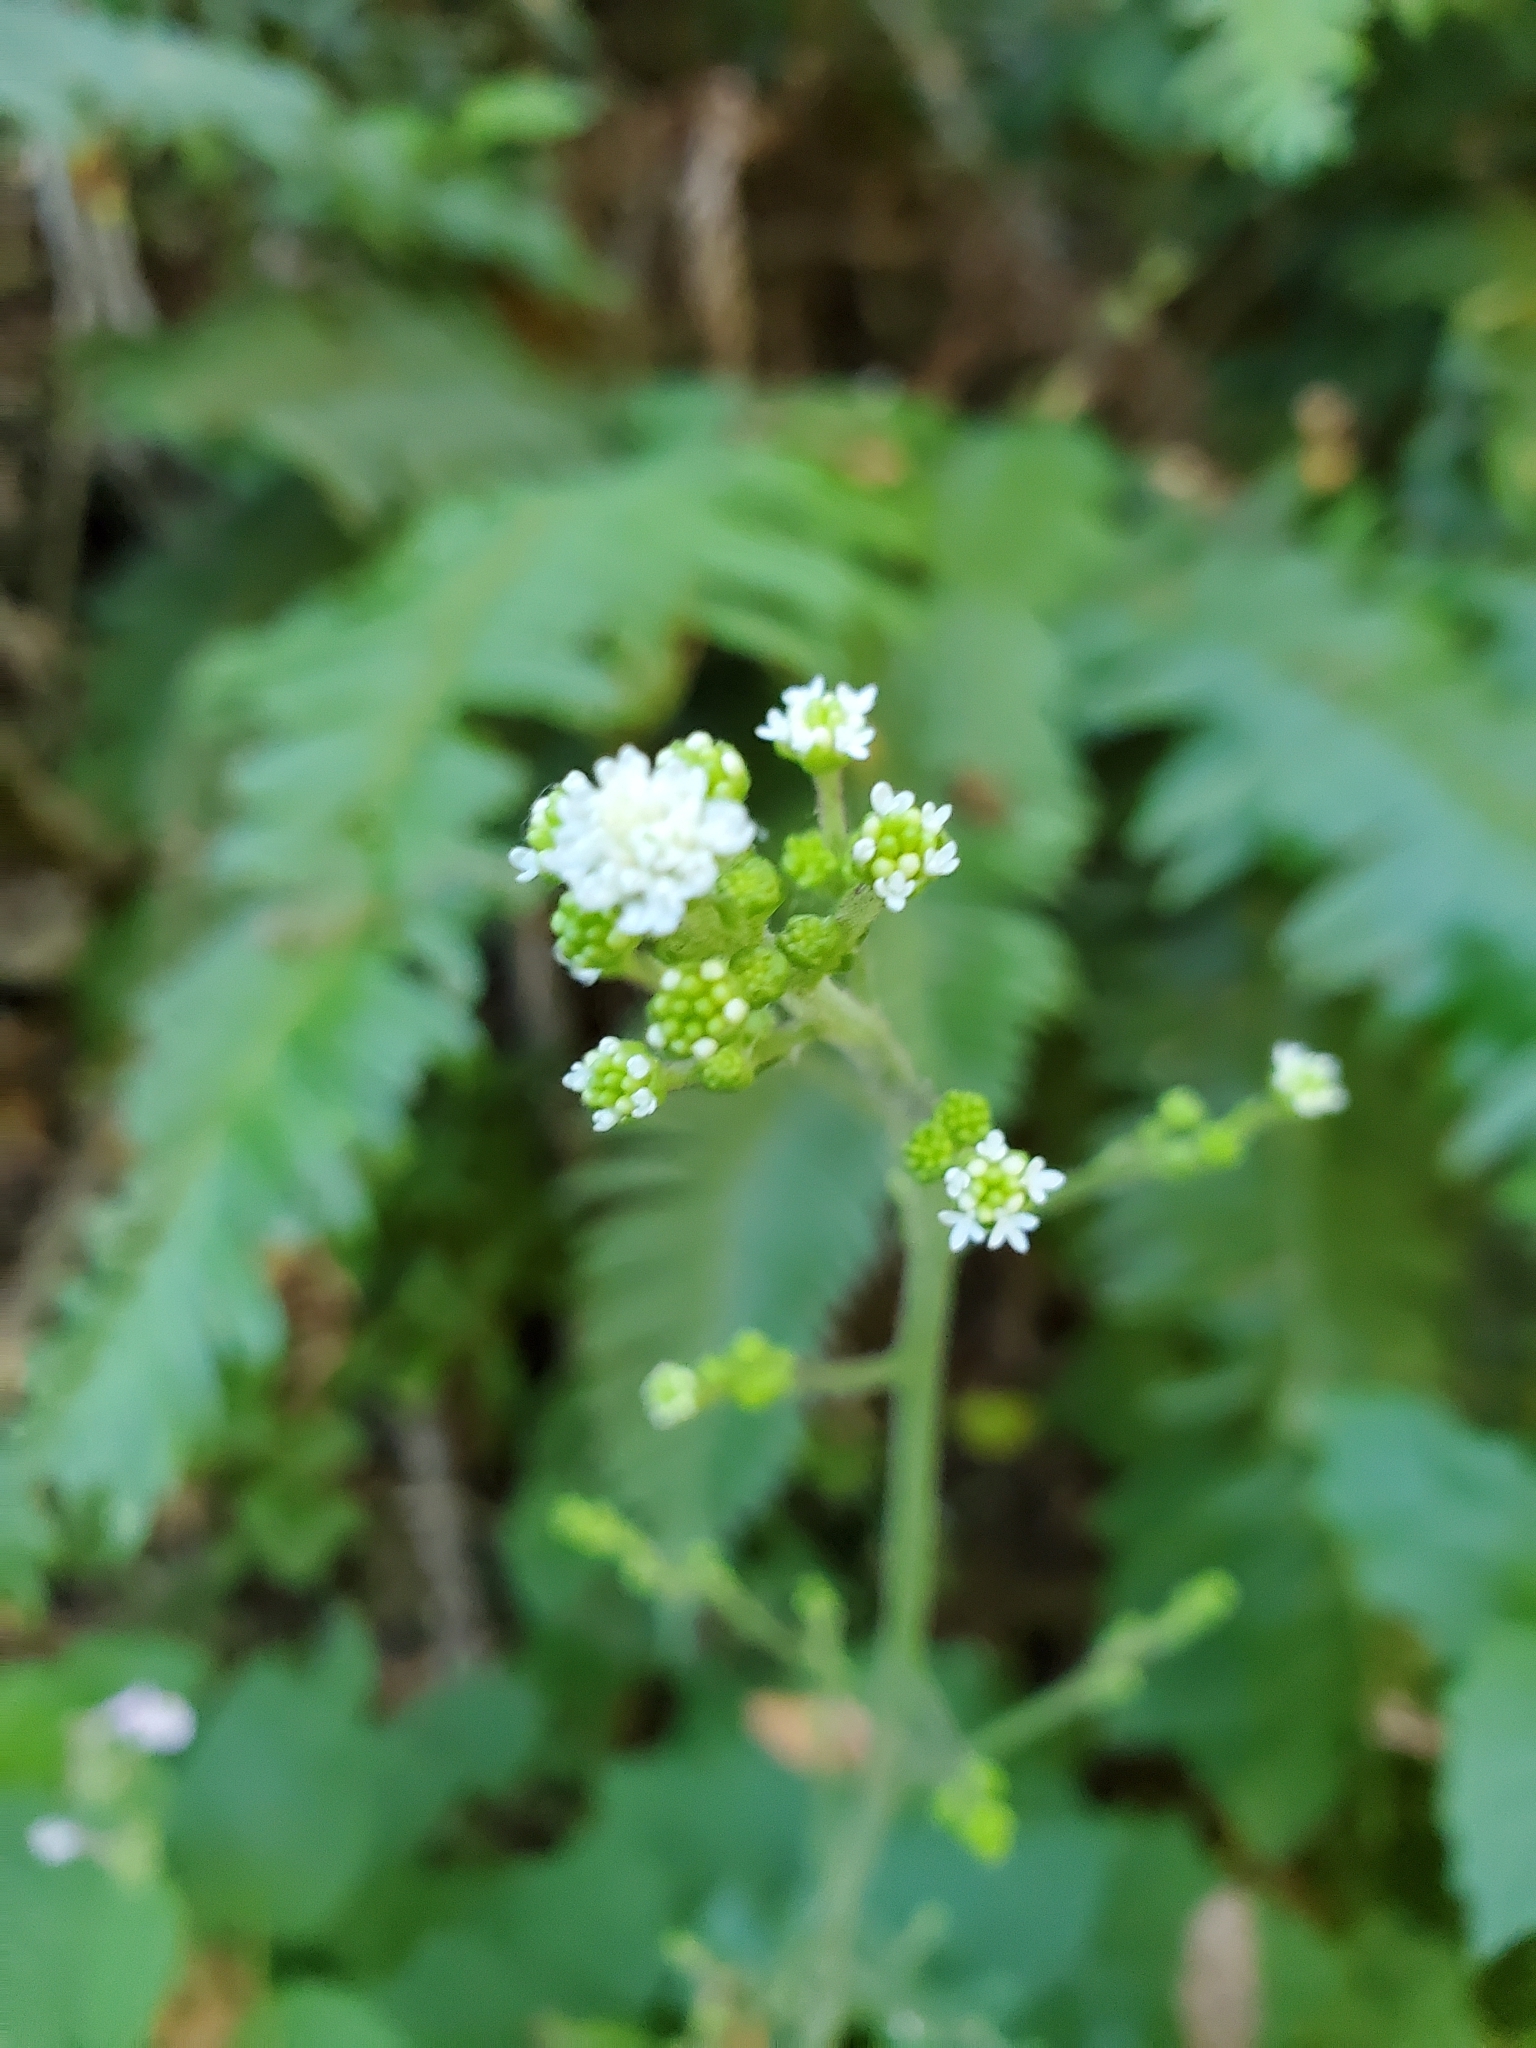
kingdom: Plantae
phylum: Tracheophyta
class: Magnoliopsida
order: Asterales
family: Asteraceae
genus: Adenocaulon
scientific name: Adenocaulon bicolor
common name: Trailplant
